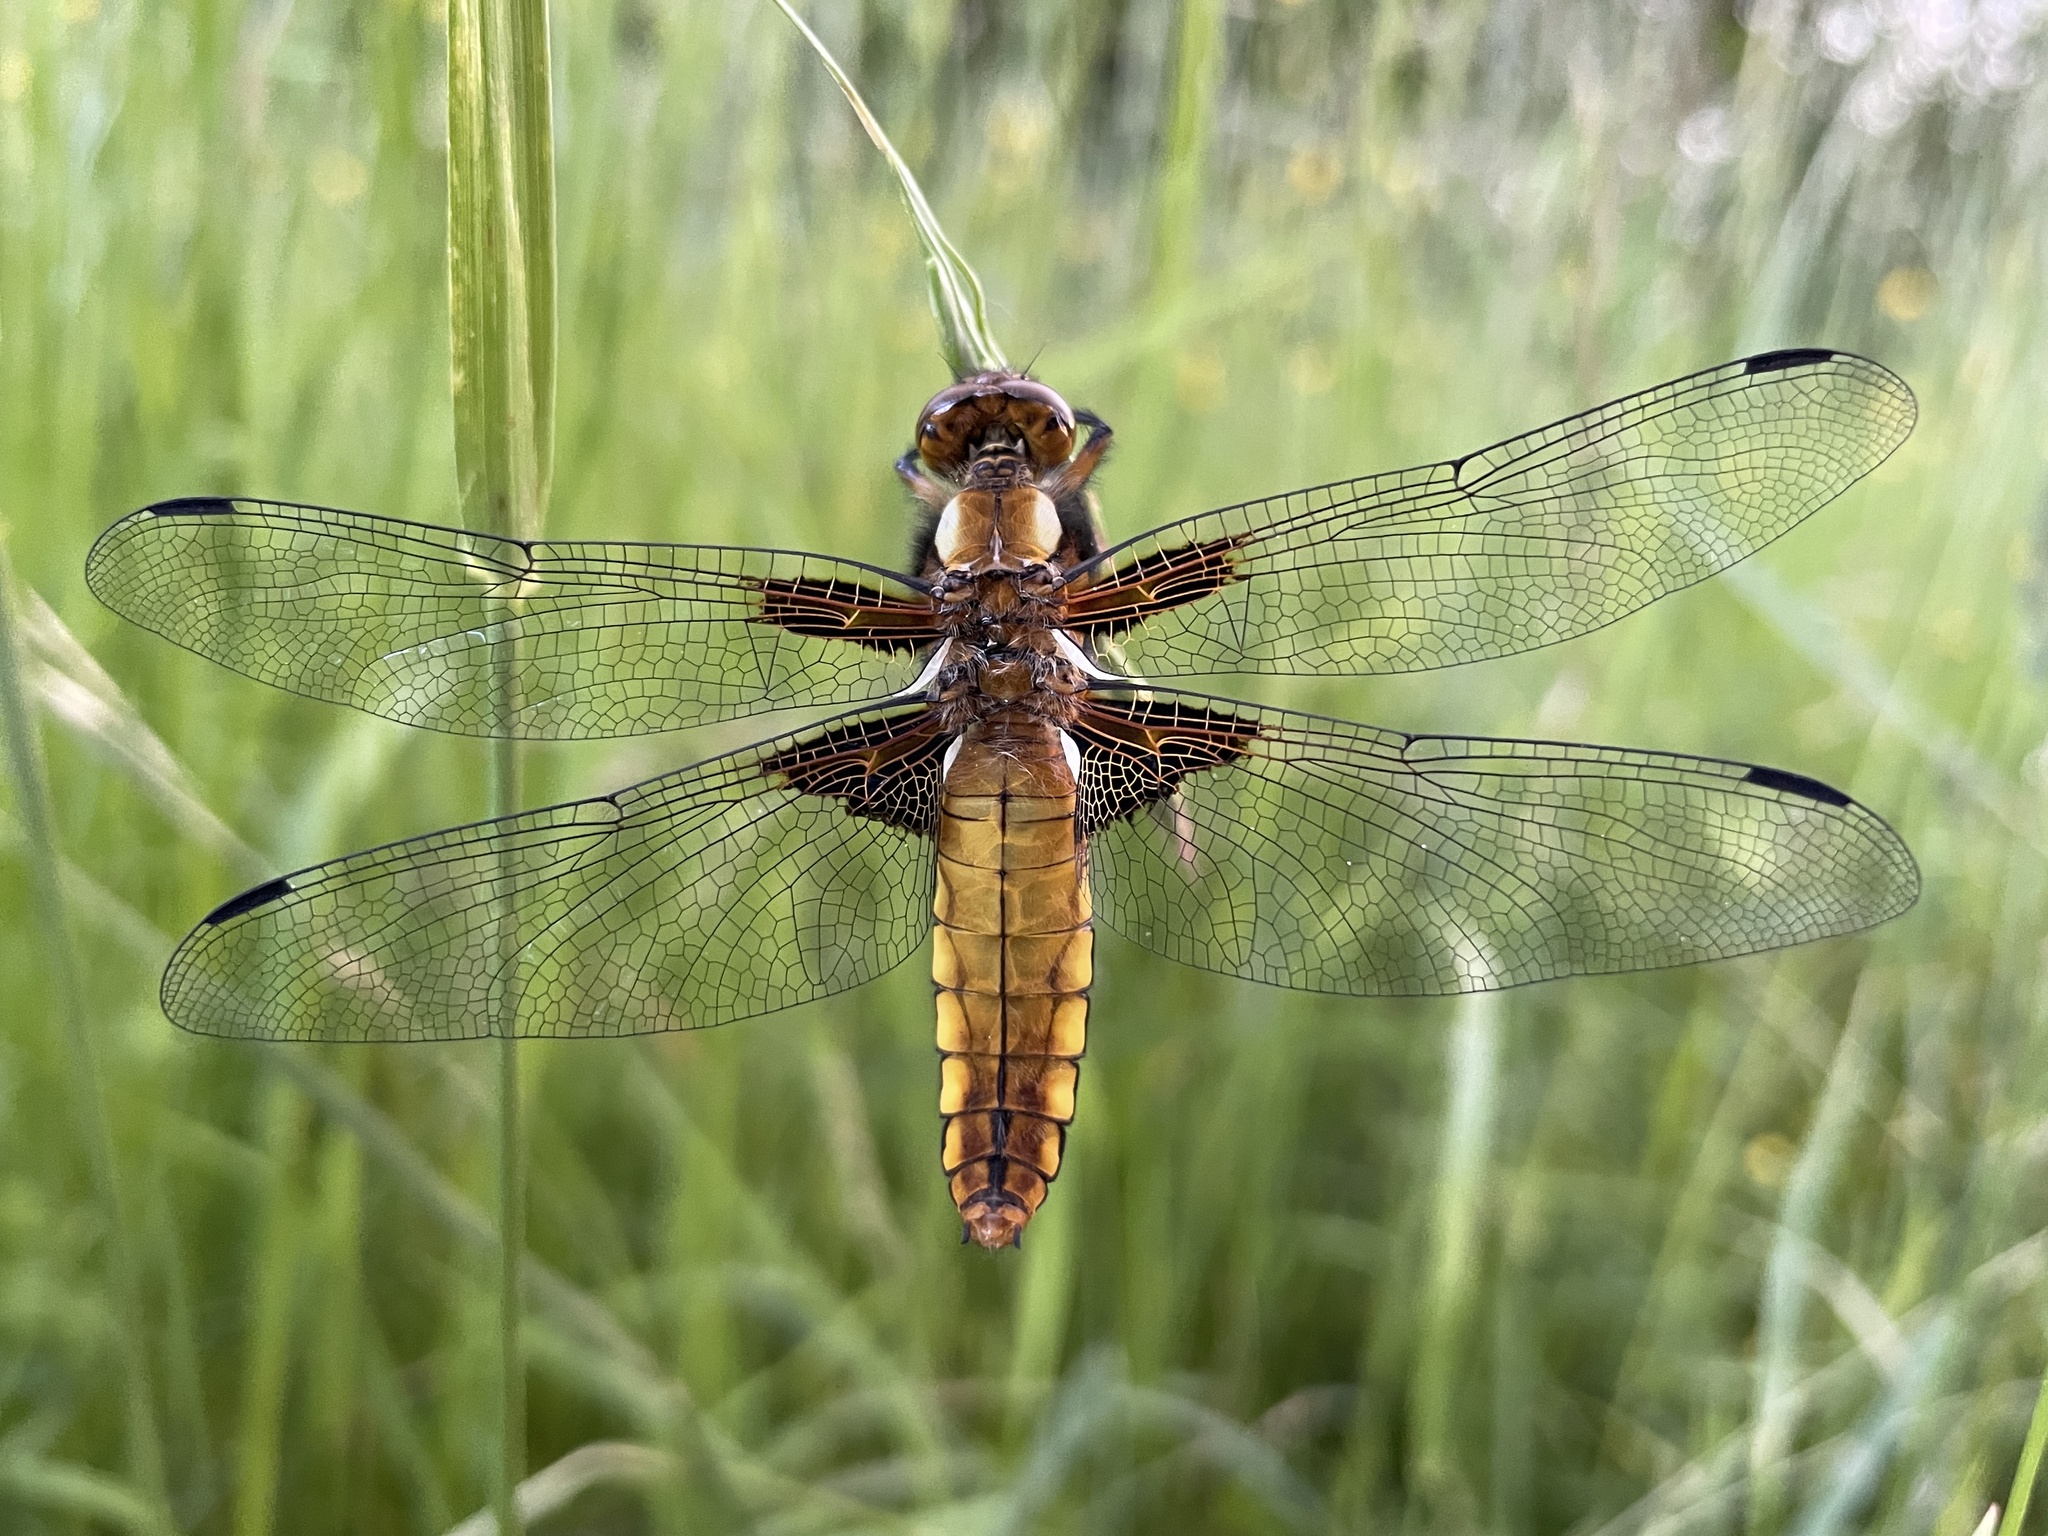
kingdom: Animalia
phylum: Arthropoda
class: Insecta
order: Odonata
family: Libellulidae
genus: Libellula
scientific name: Libellula depressa
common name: Broad-bodied chaser
